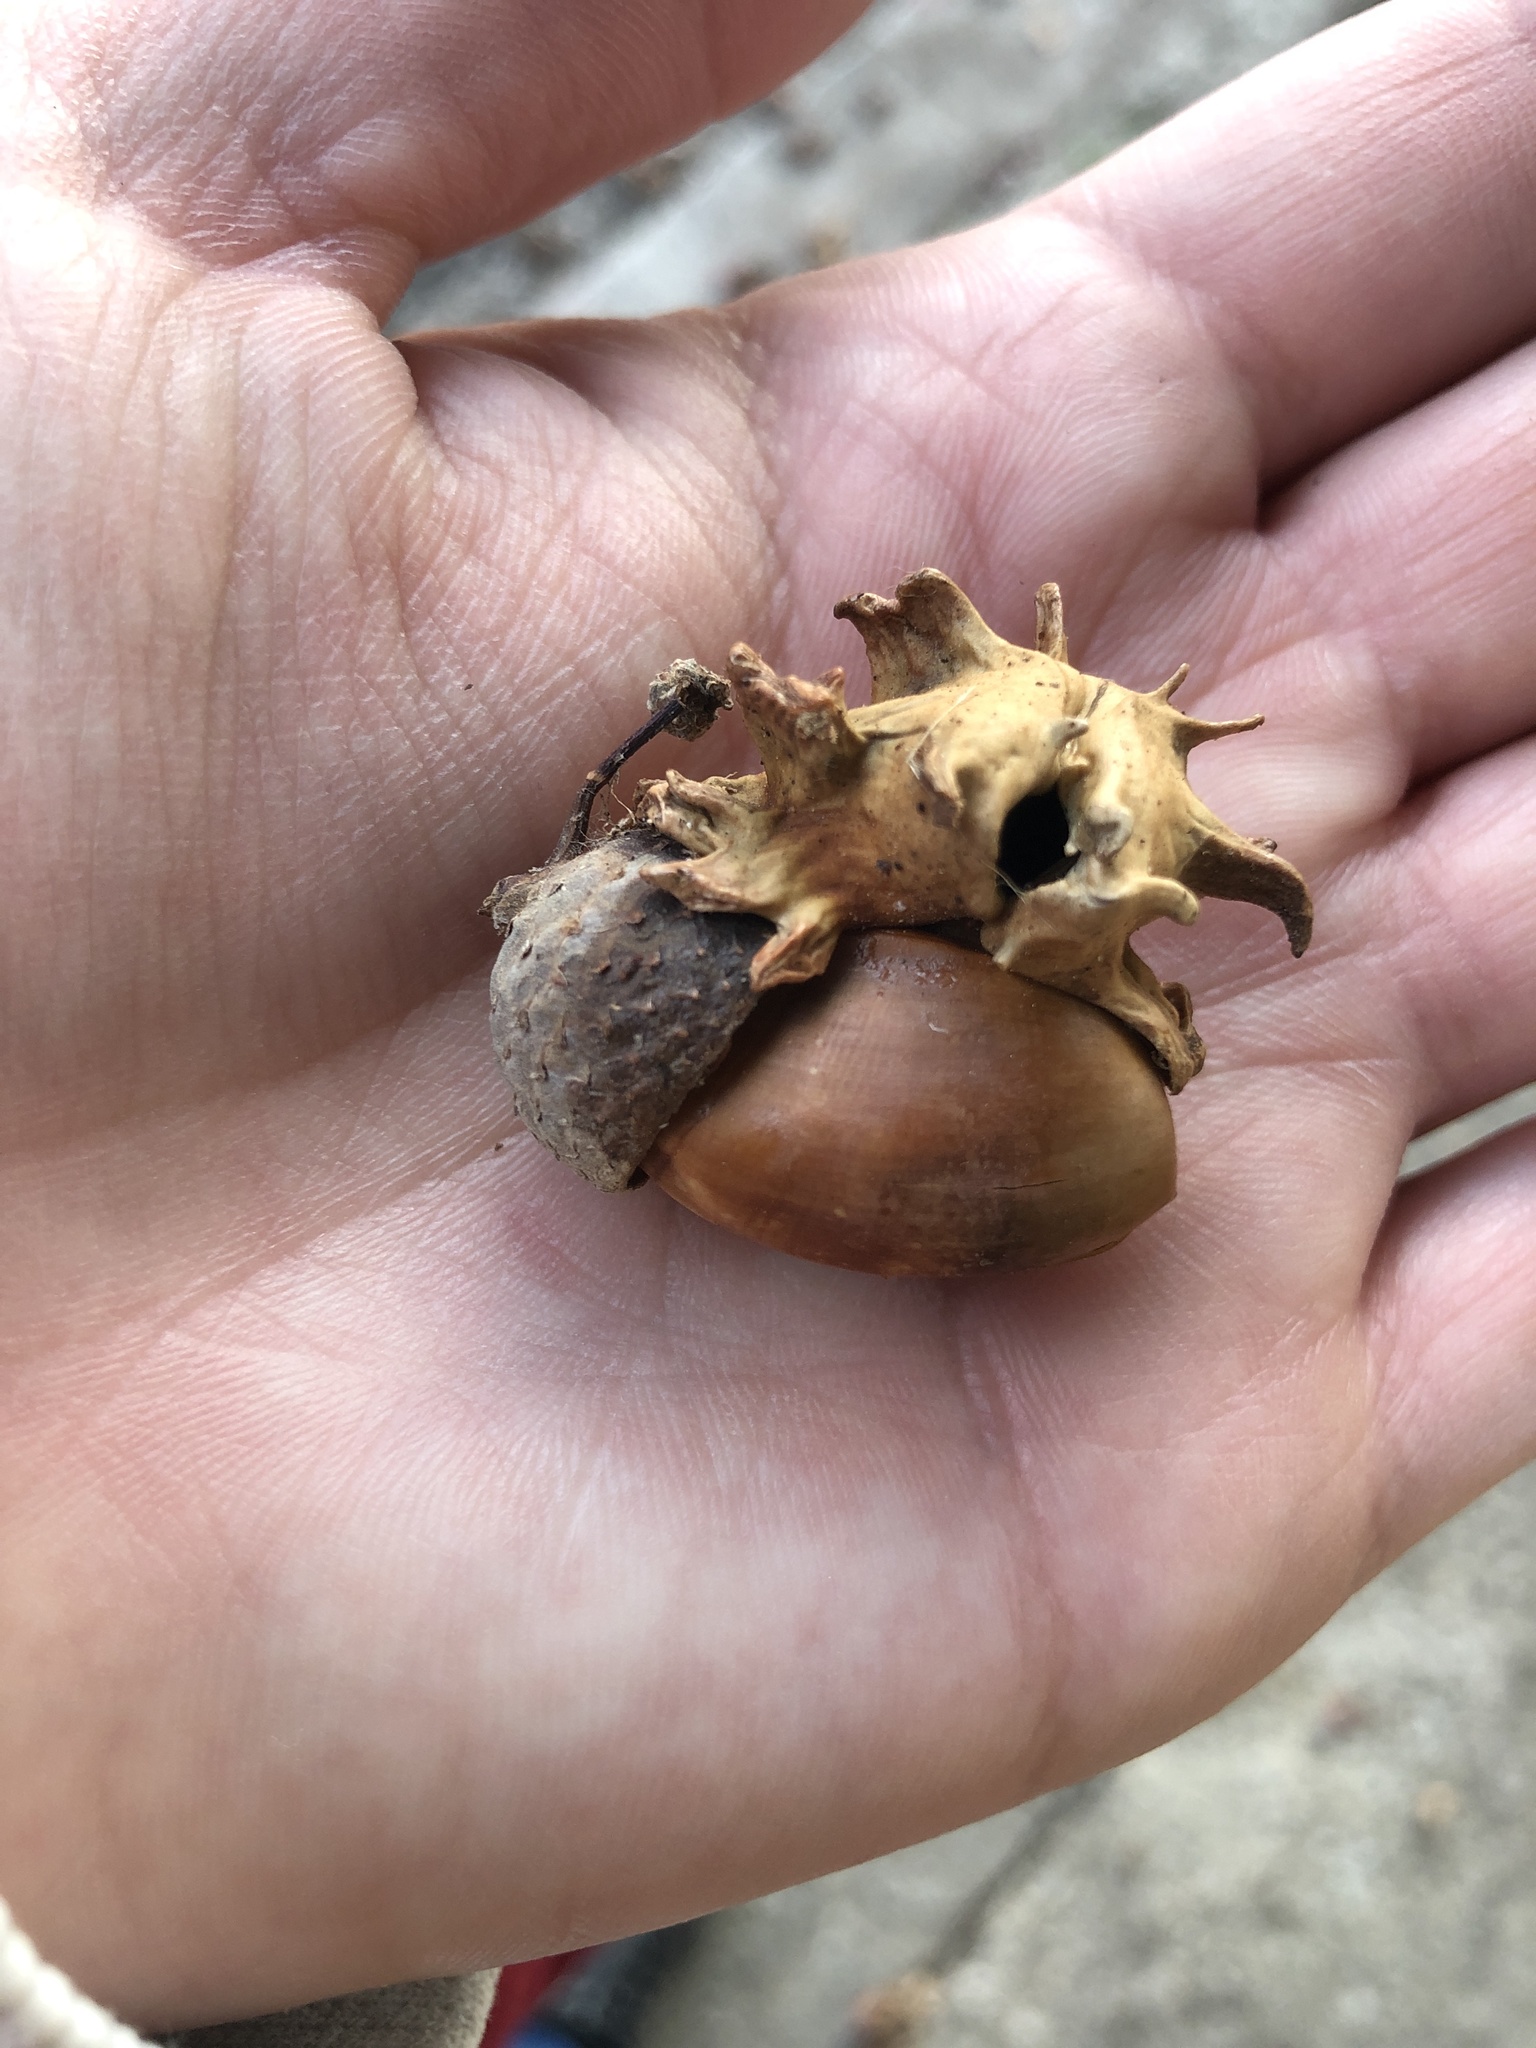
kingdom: Animalia
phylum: Arthropoda
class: Insecta
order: Hymenoptera
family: Cynipidae
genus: Andricus
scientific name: Andricus quercuscalicis
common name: Knopper gall
